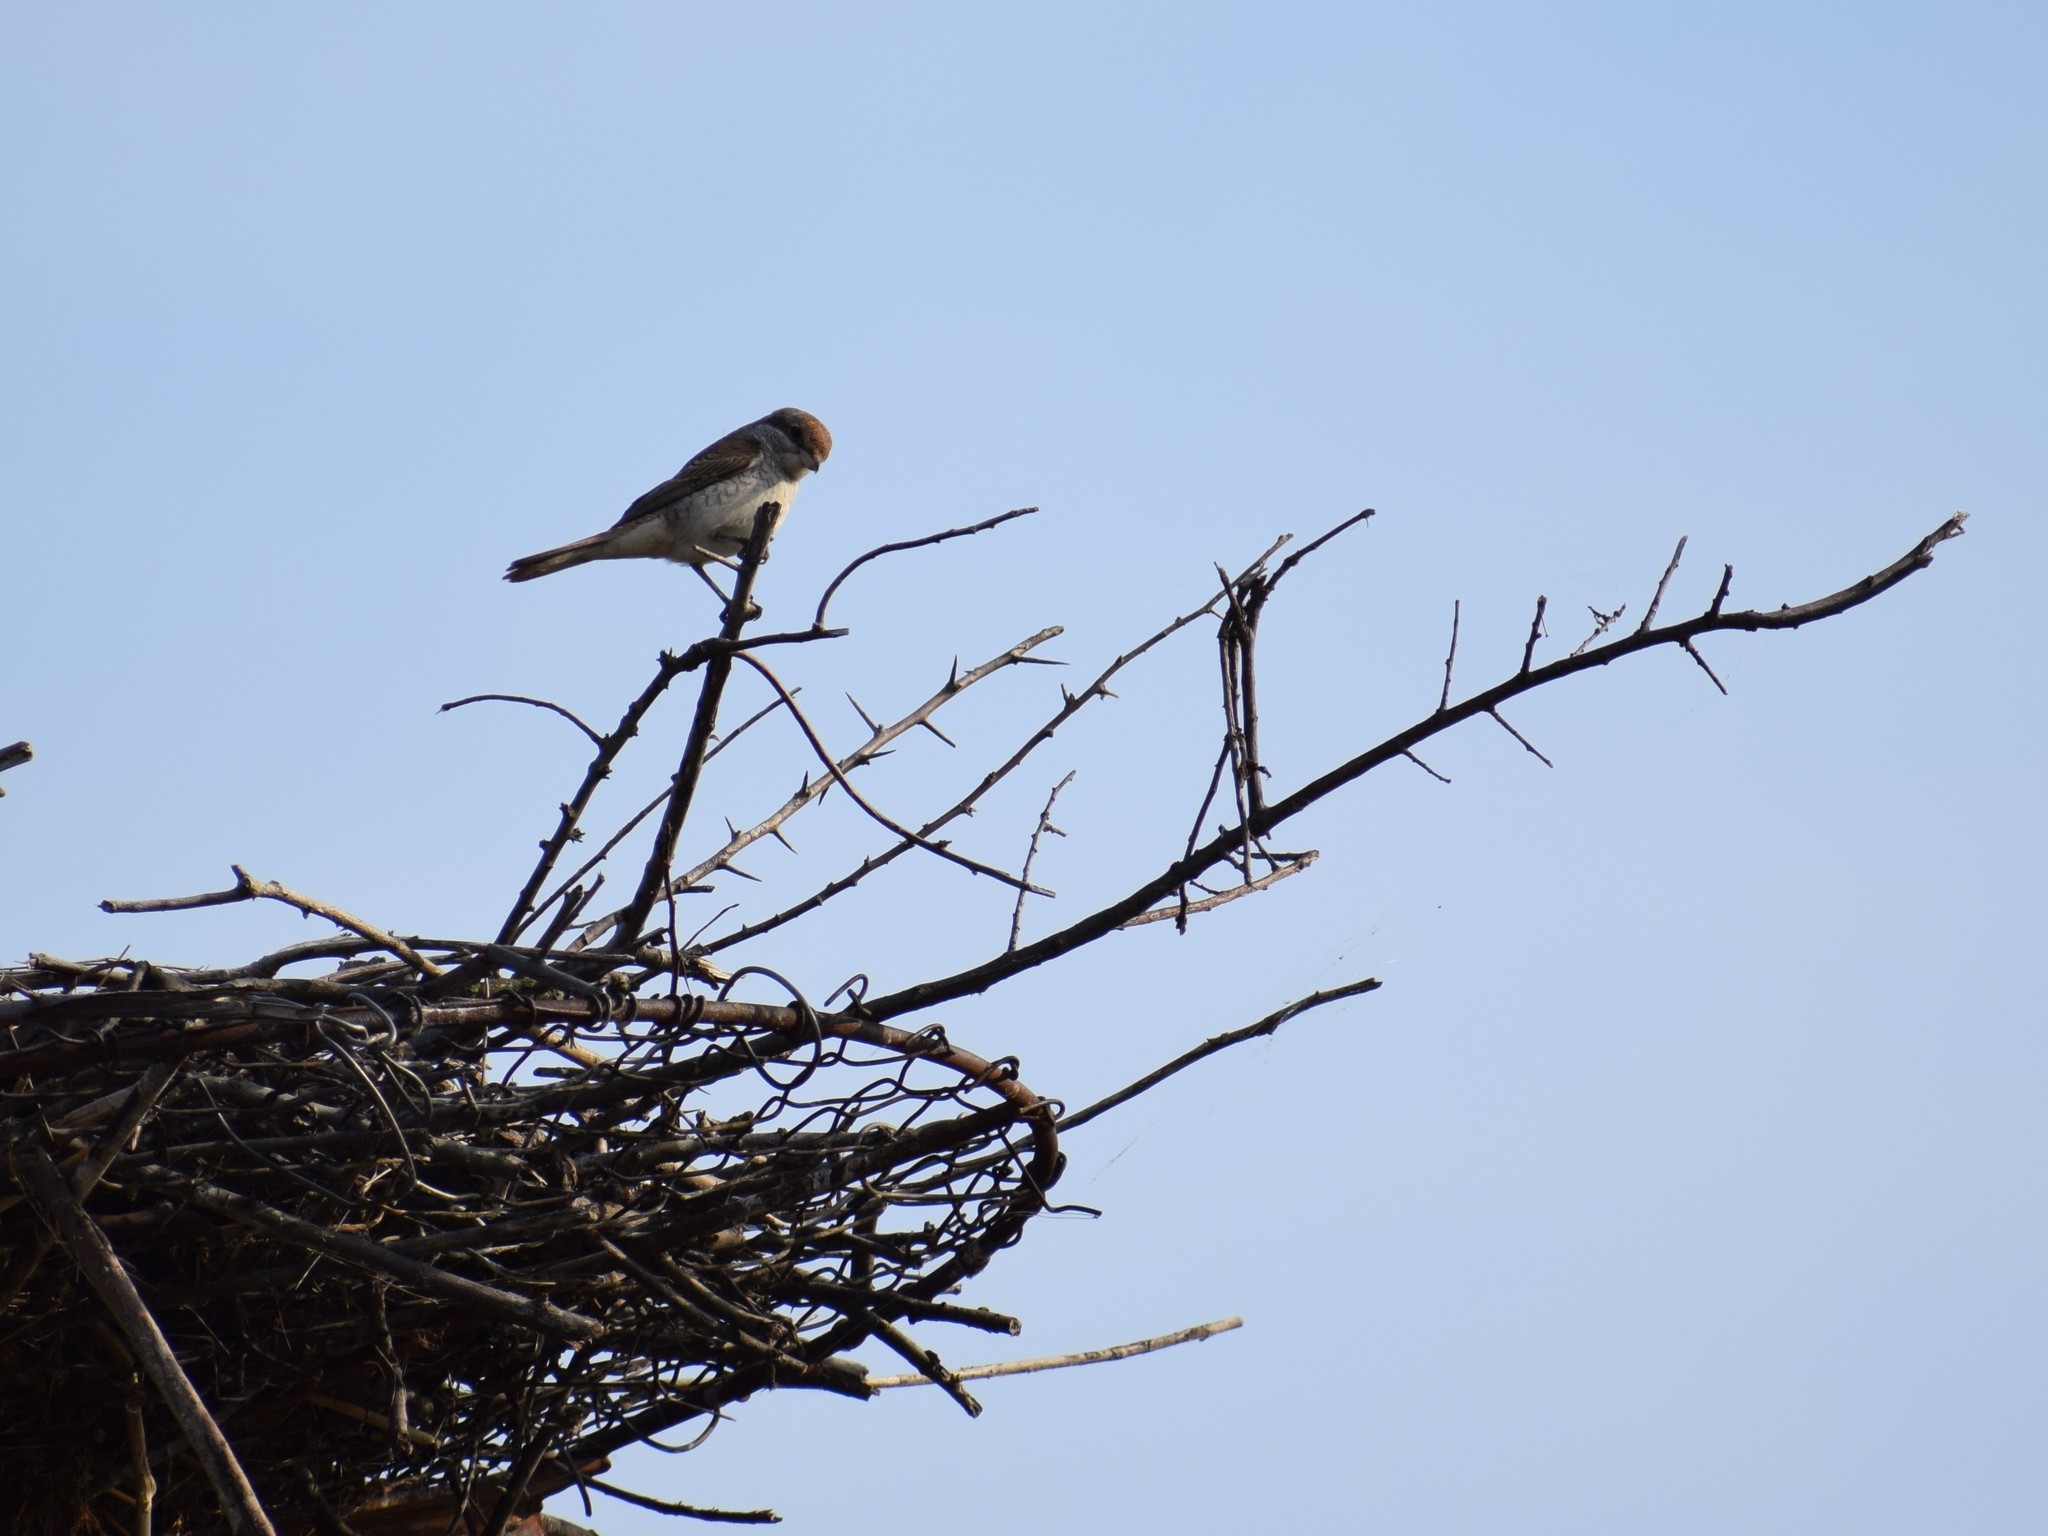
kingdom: Animalia
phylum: Chordata
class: Aves
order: Passeriformes
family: Laniidae
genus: Lanius
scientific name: Lanius collurio
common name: Red-backed shrike
